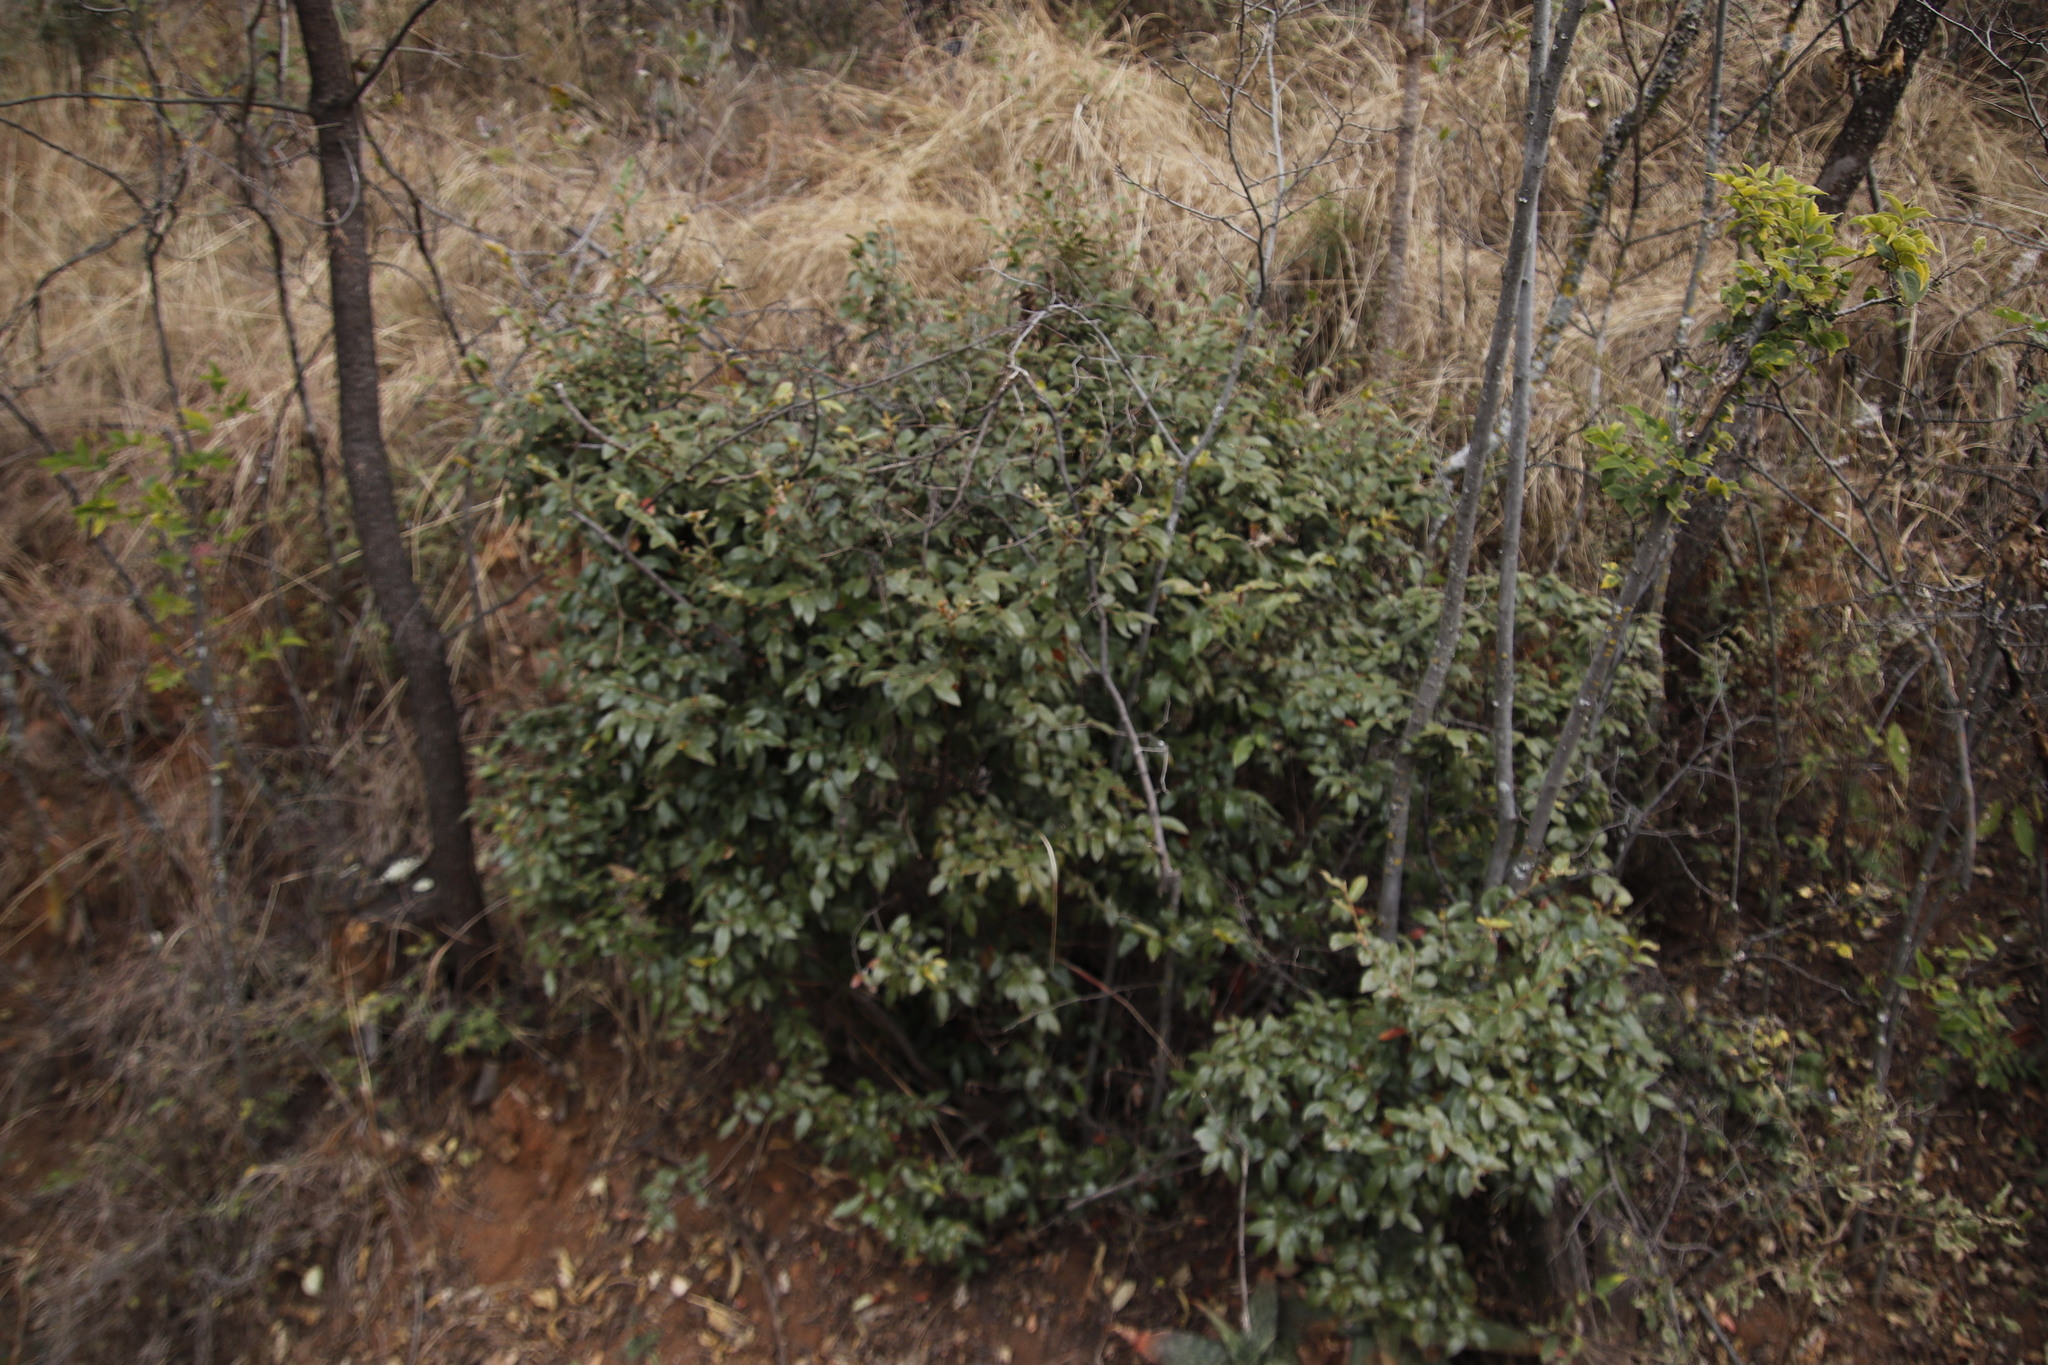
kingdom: Plantae
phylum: Tracheophyta
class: Magnoliopsida
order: Ericales
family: Ebenaceae
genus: Diospyros
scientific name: Diospyros whyteana
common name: Bladder-nut
